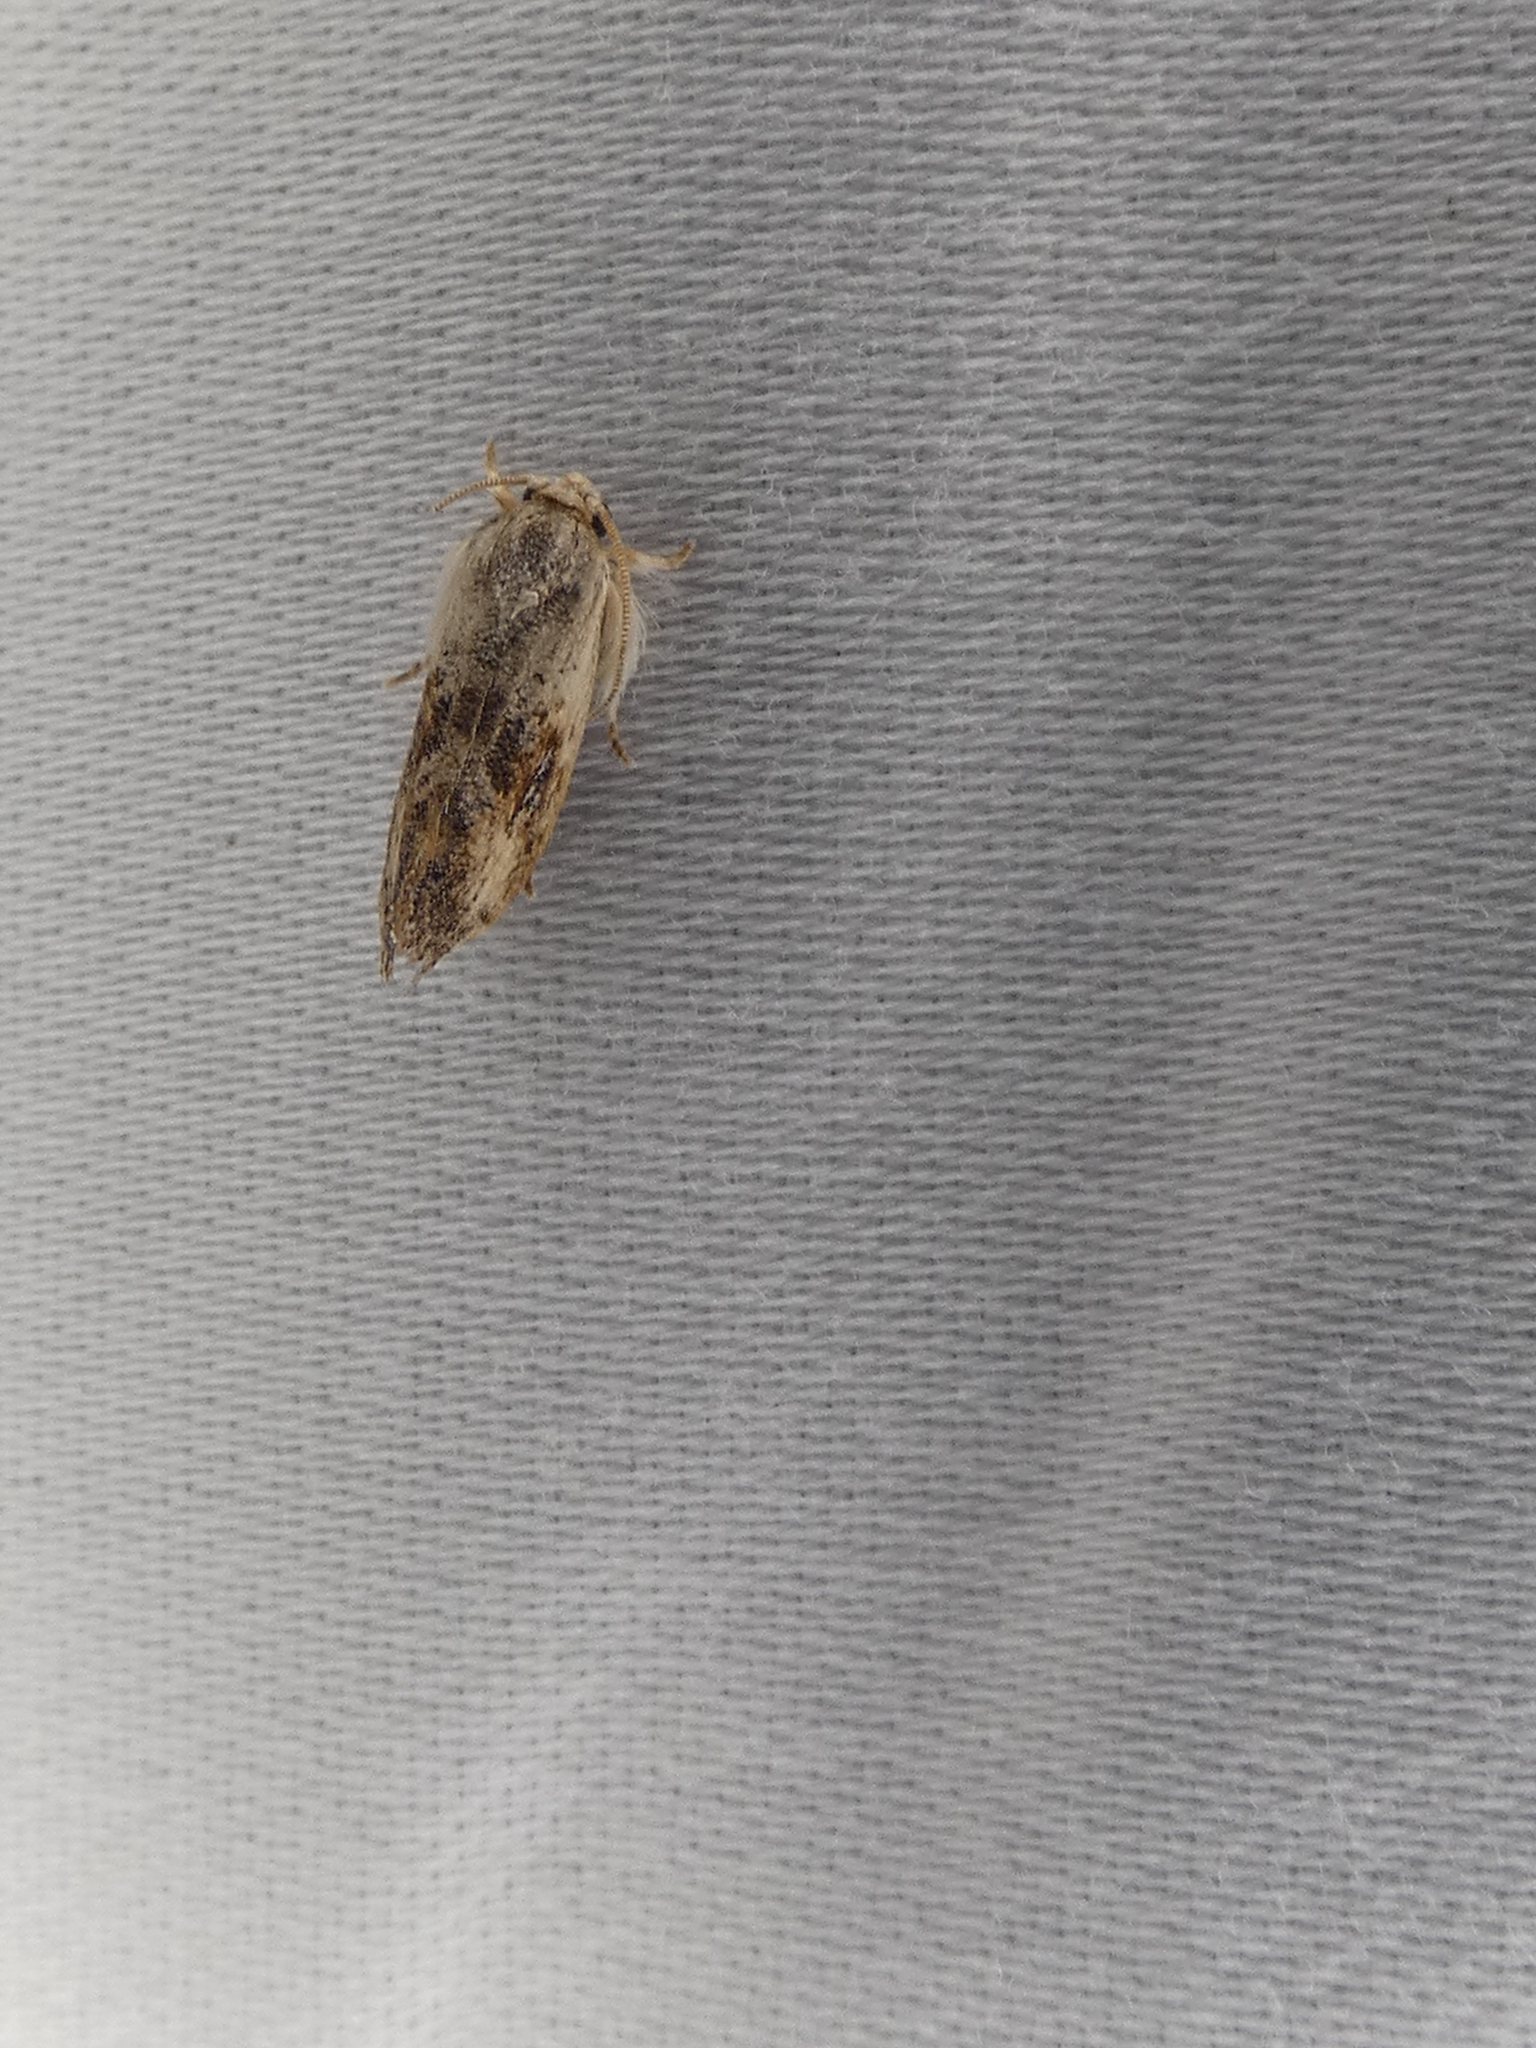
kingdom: Animalia
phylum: Arthropoda
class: Insecta
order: Lepidoptera
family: Tineidae
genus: Acrolophus
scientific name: Acrolophus mycetophagus
